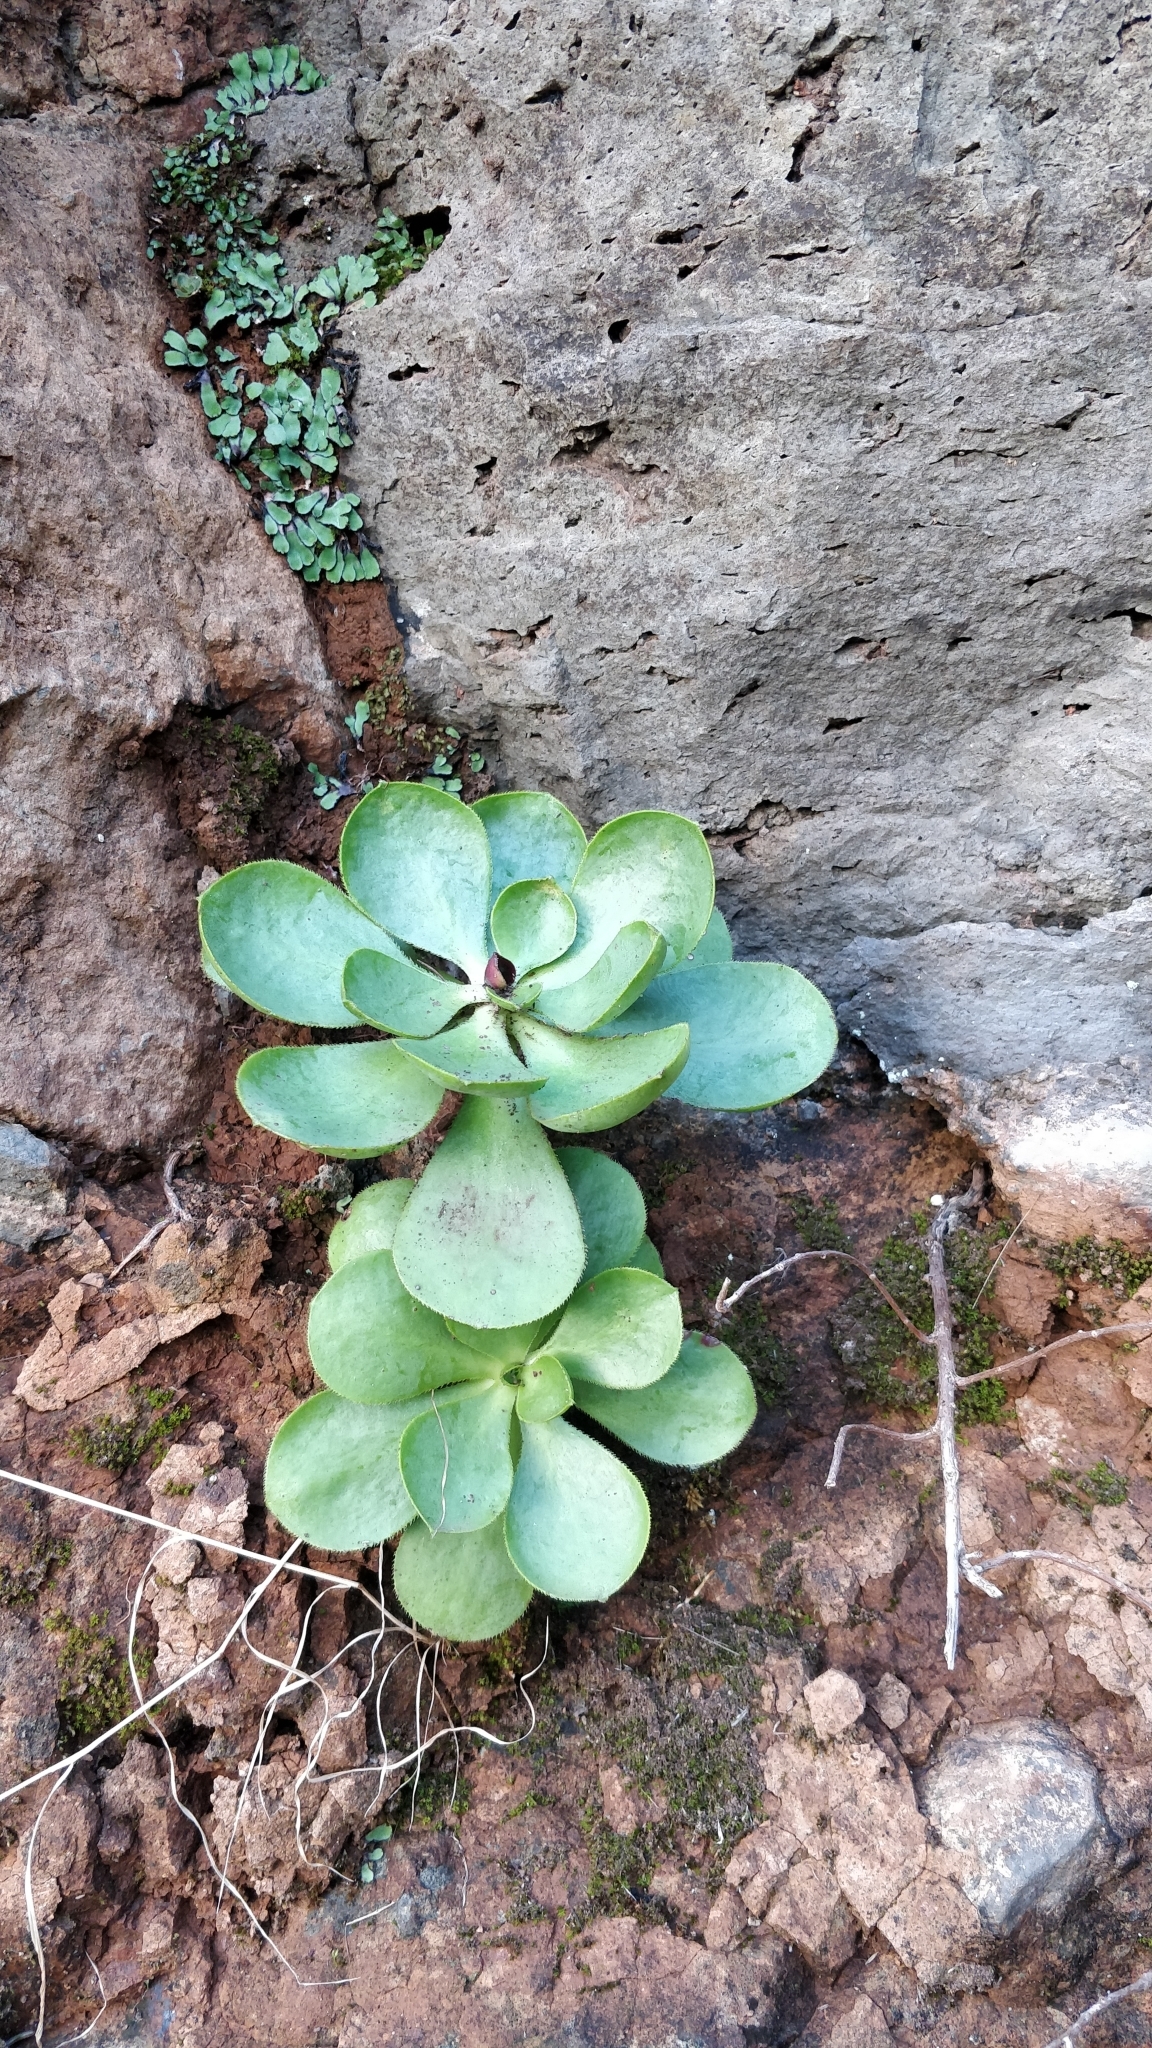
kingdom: Plantae
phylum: Tracheophyta
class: Magnoliopsida
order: Saxifragales
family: Crassulaceae
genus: Aeonium
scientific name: Aeonium glutinosum
